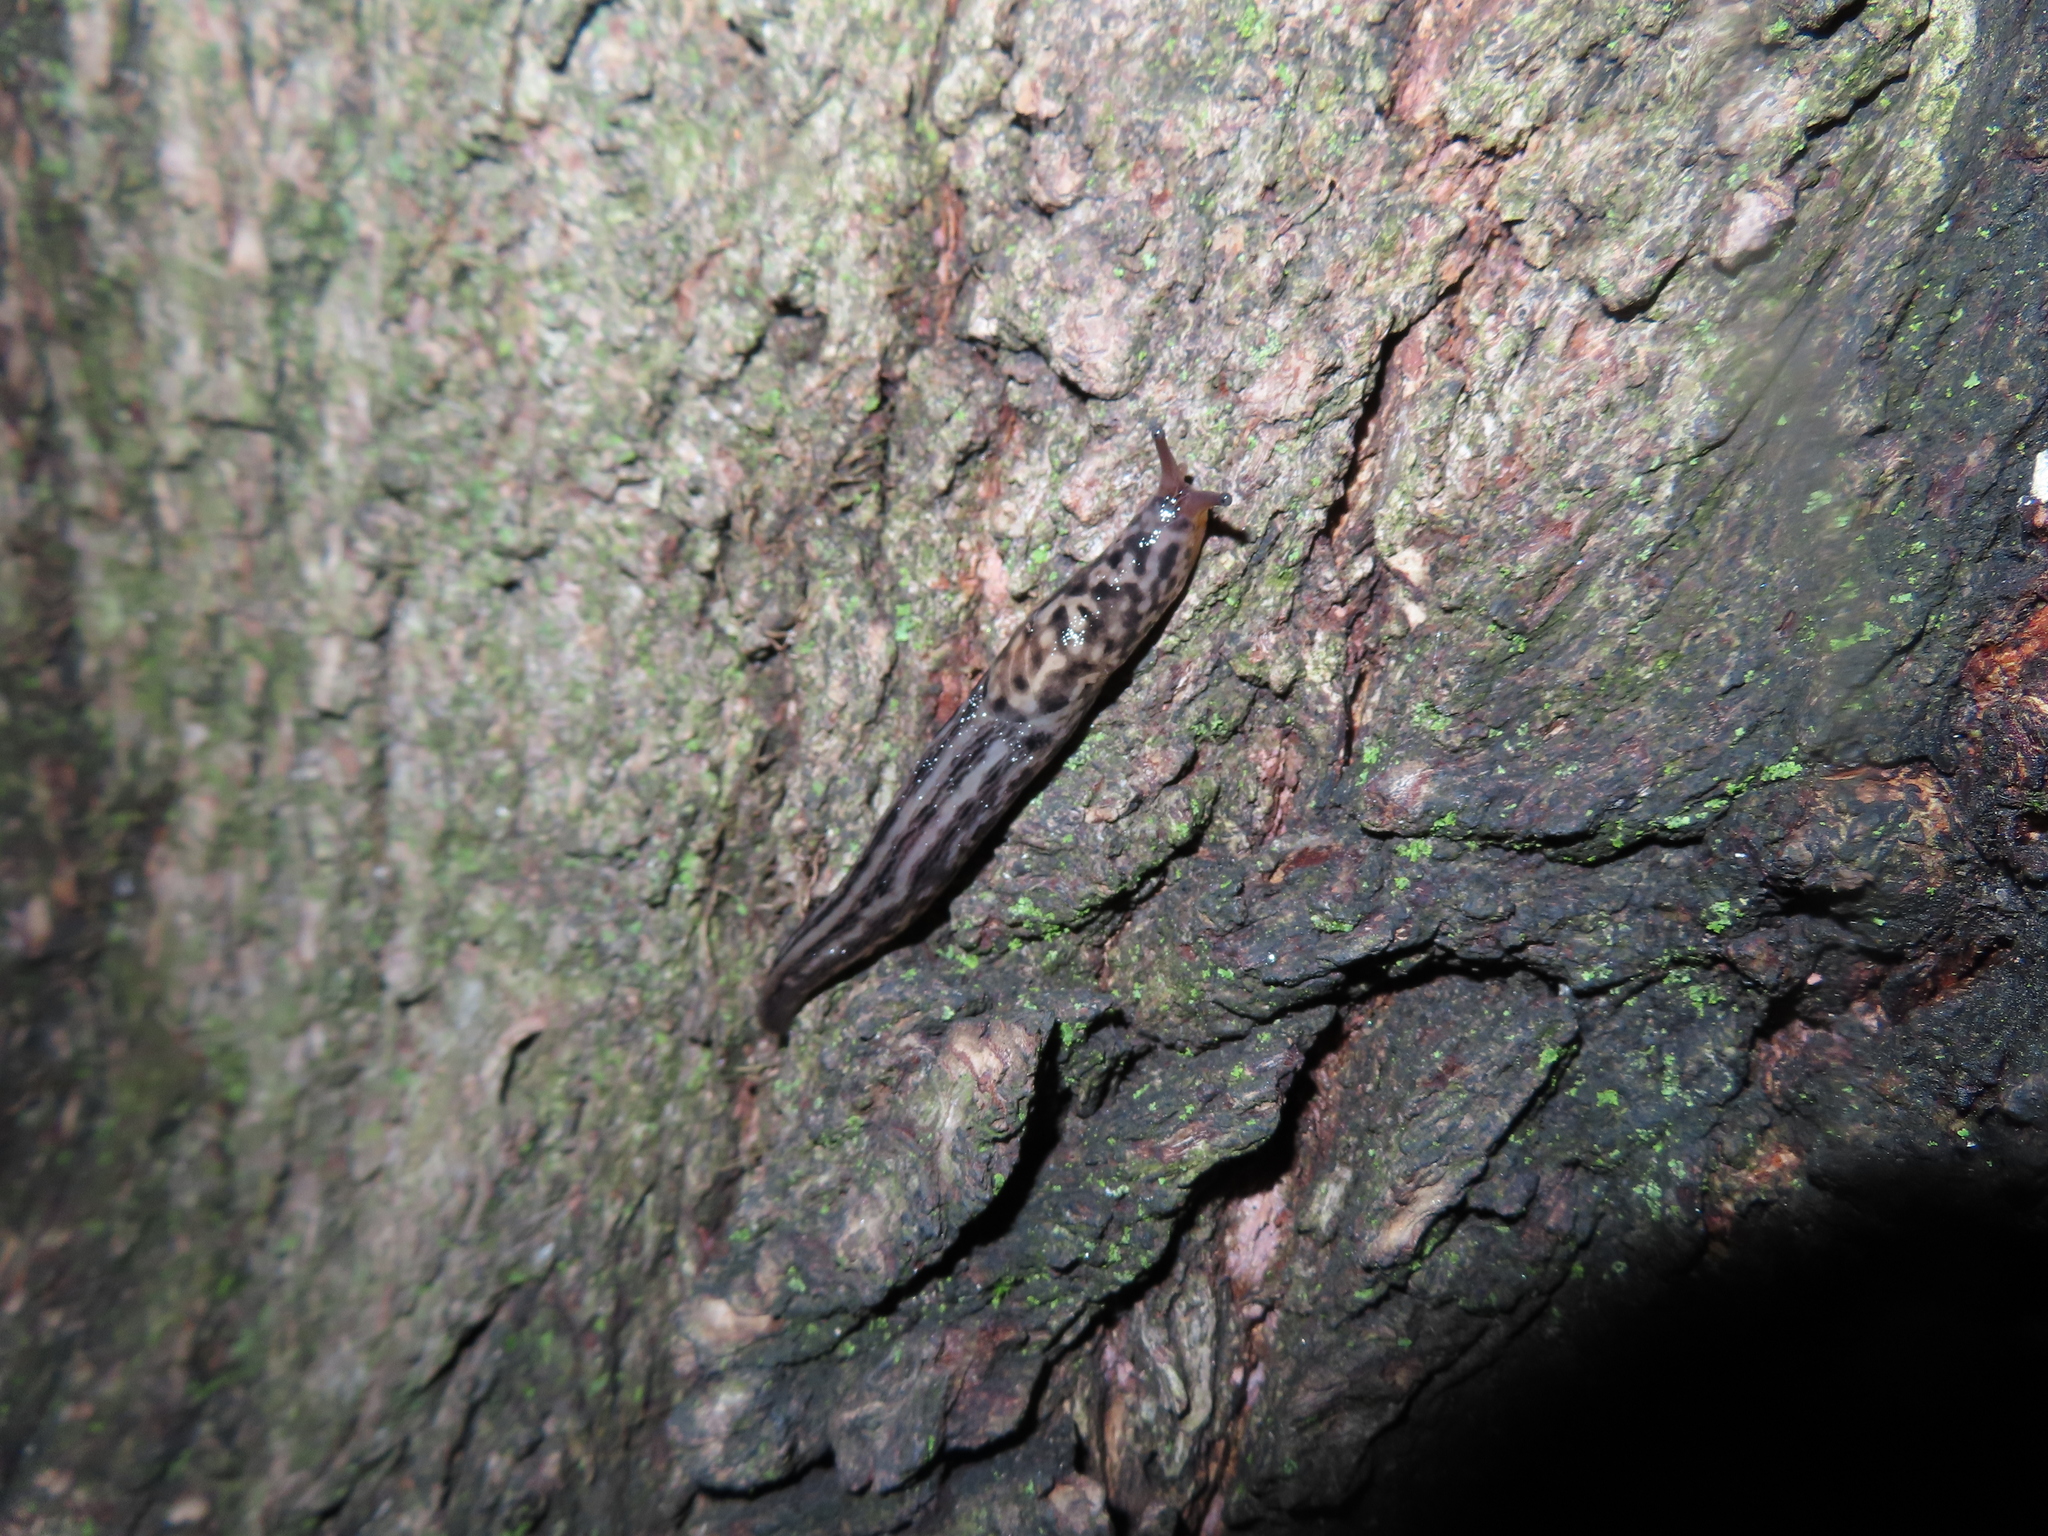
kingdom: Animalia
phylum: Mollusca
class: Gastropoda
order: Stylommatophora
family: Limacidae
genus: Limax
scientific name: Limax maximus
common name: Great grey slug
